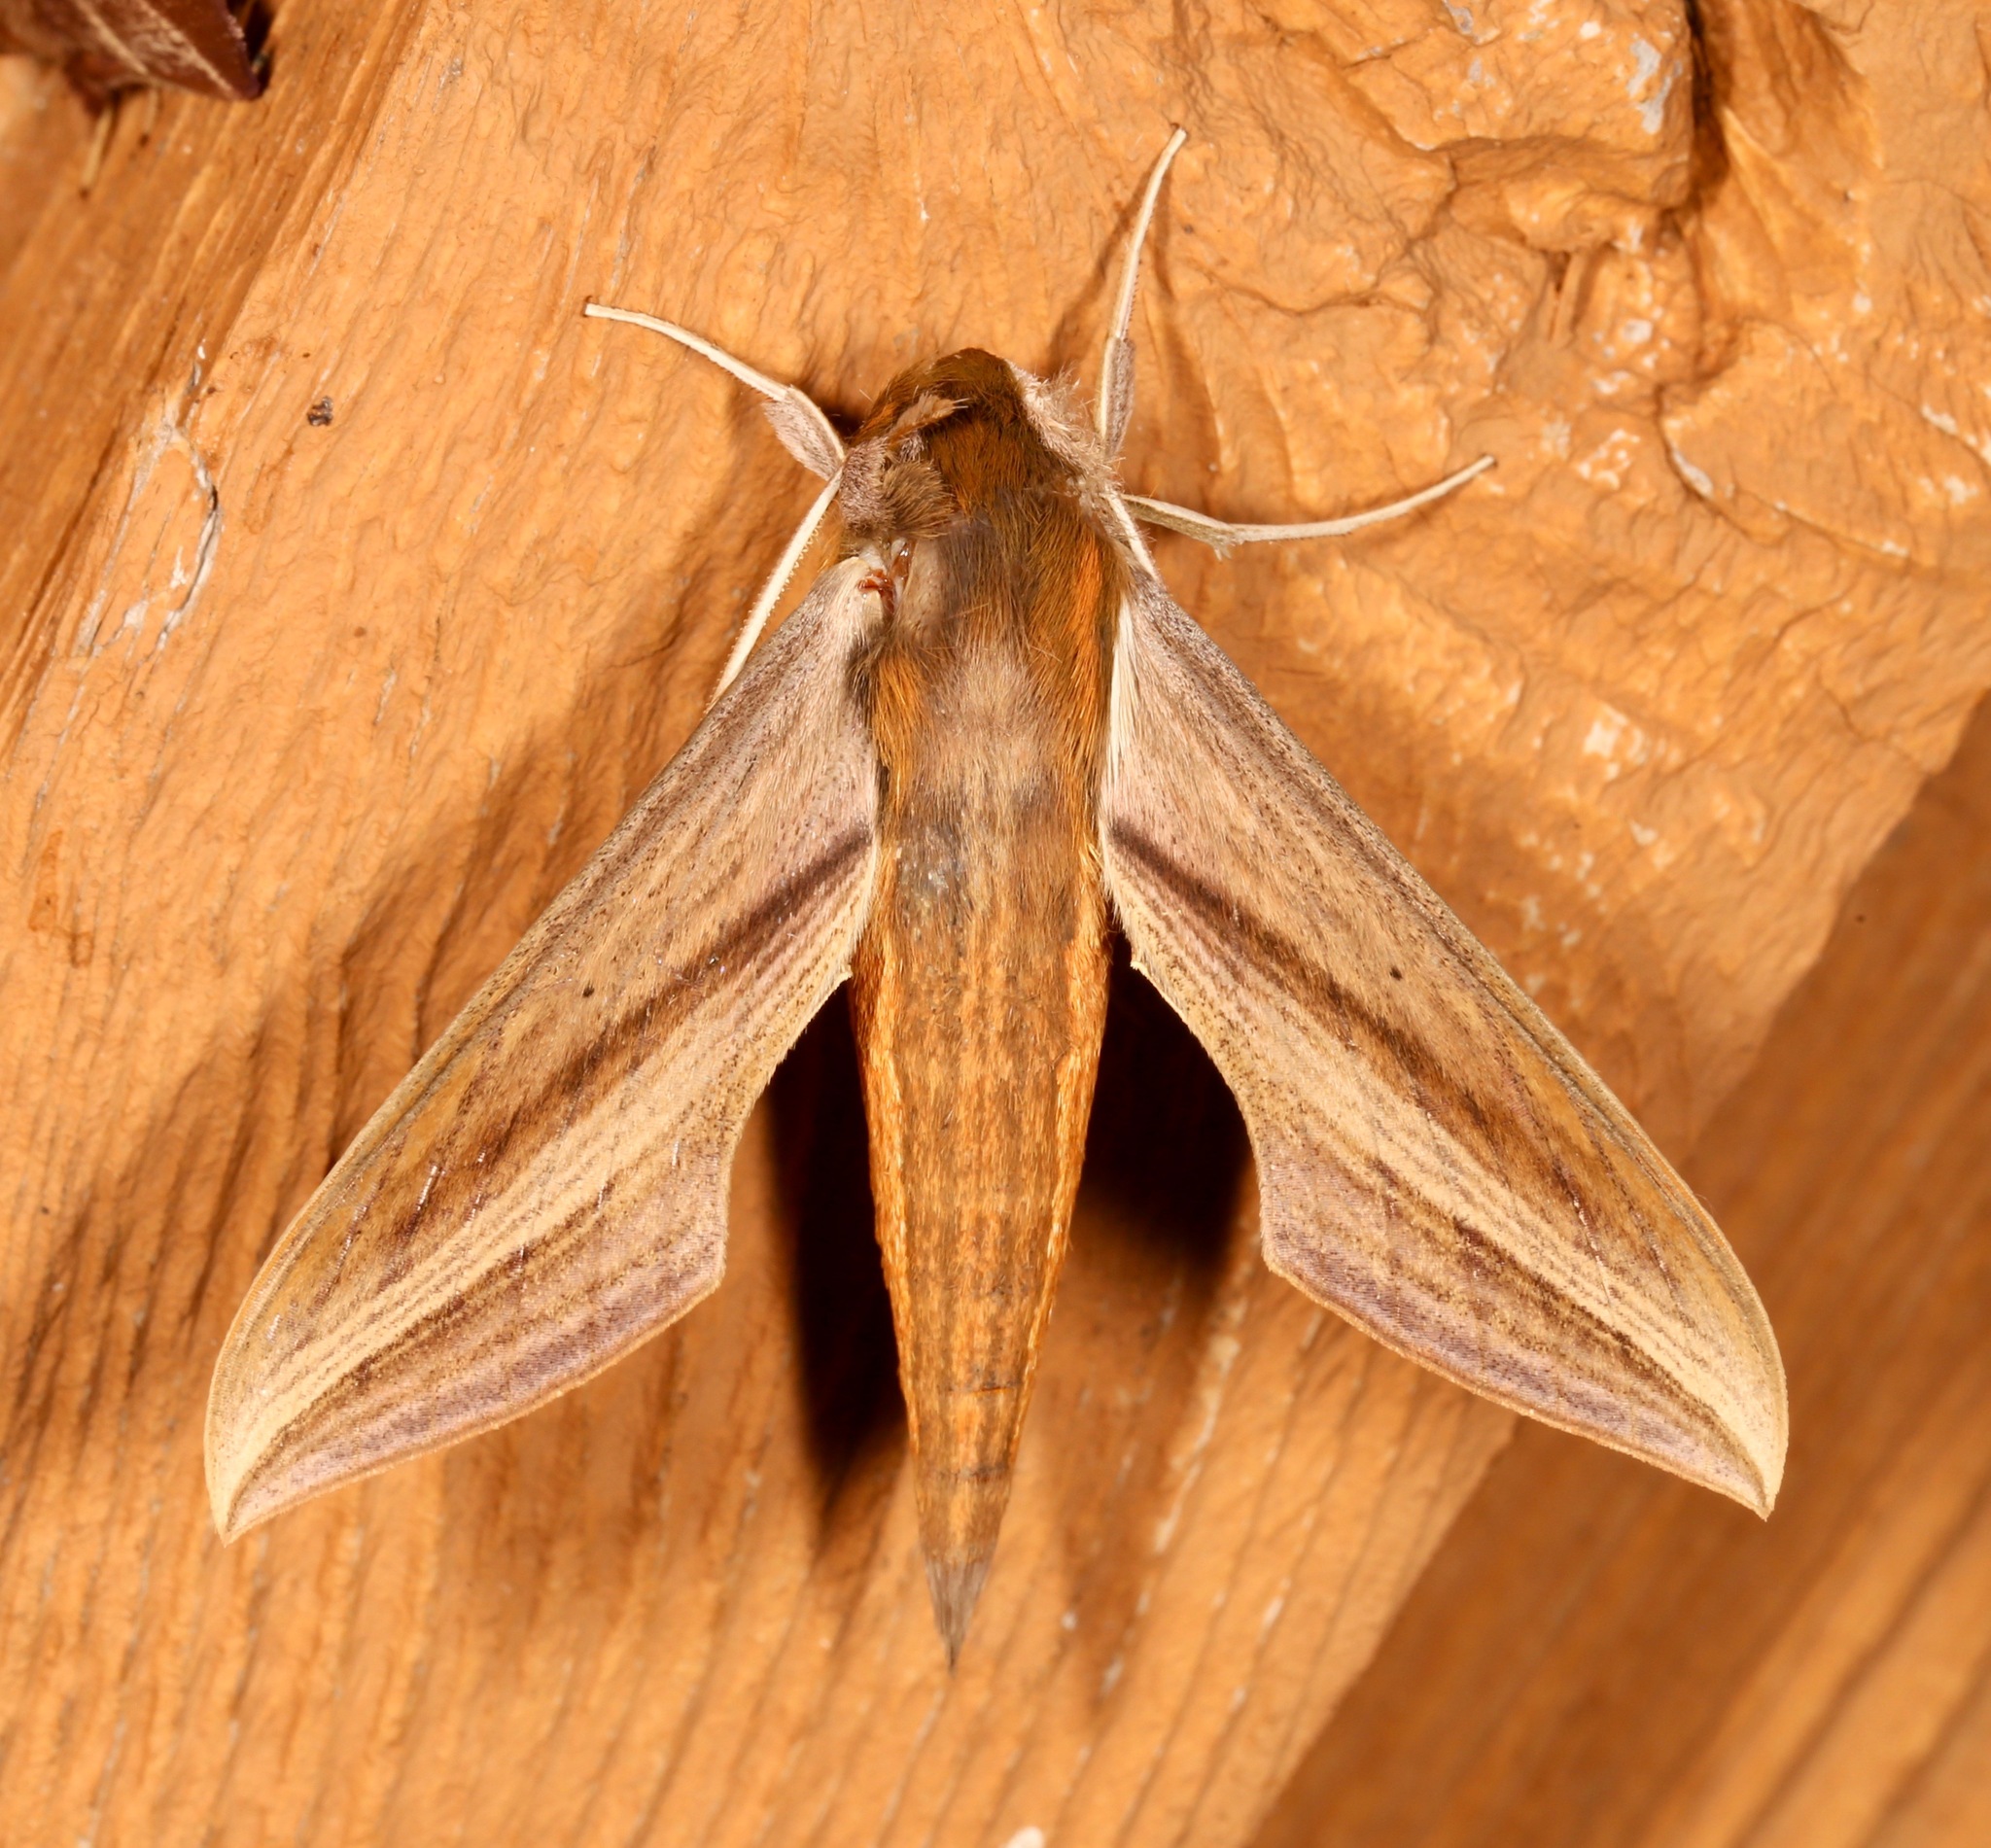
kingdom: Animalia
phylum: Arthropoda
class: Insecta
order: Lepidoptera
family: Sphingidae
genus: Xylophanes
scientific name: Xylophanes tersa
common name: Tersa sphinx
